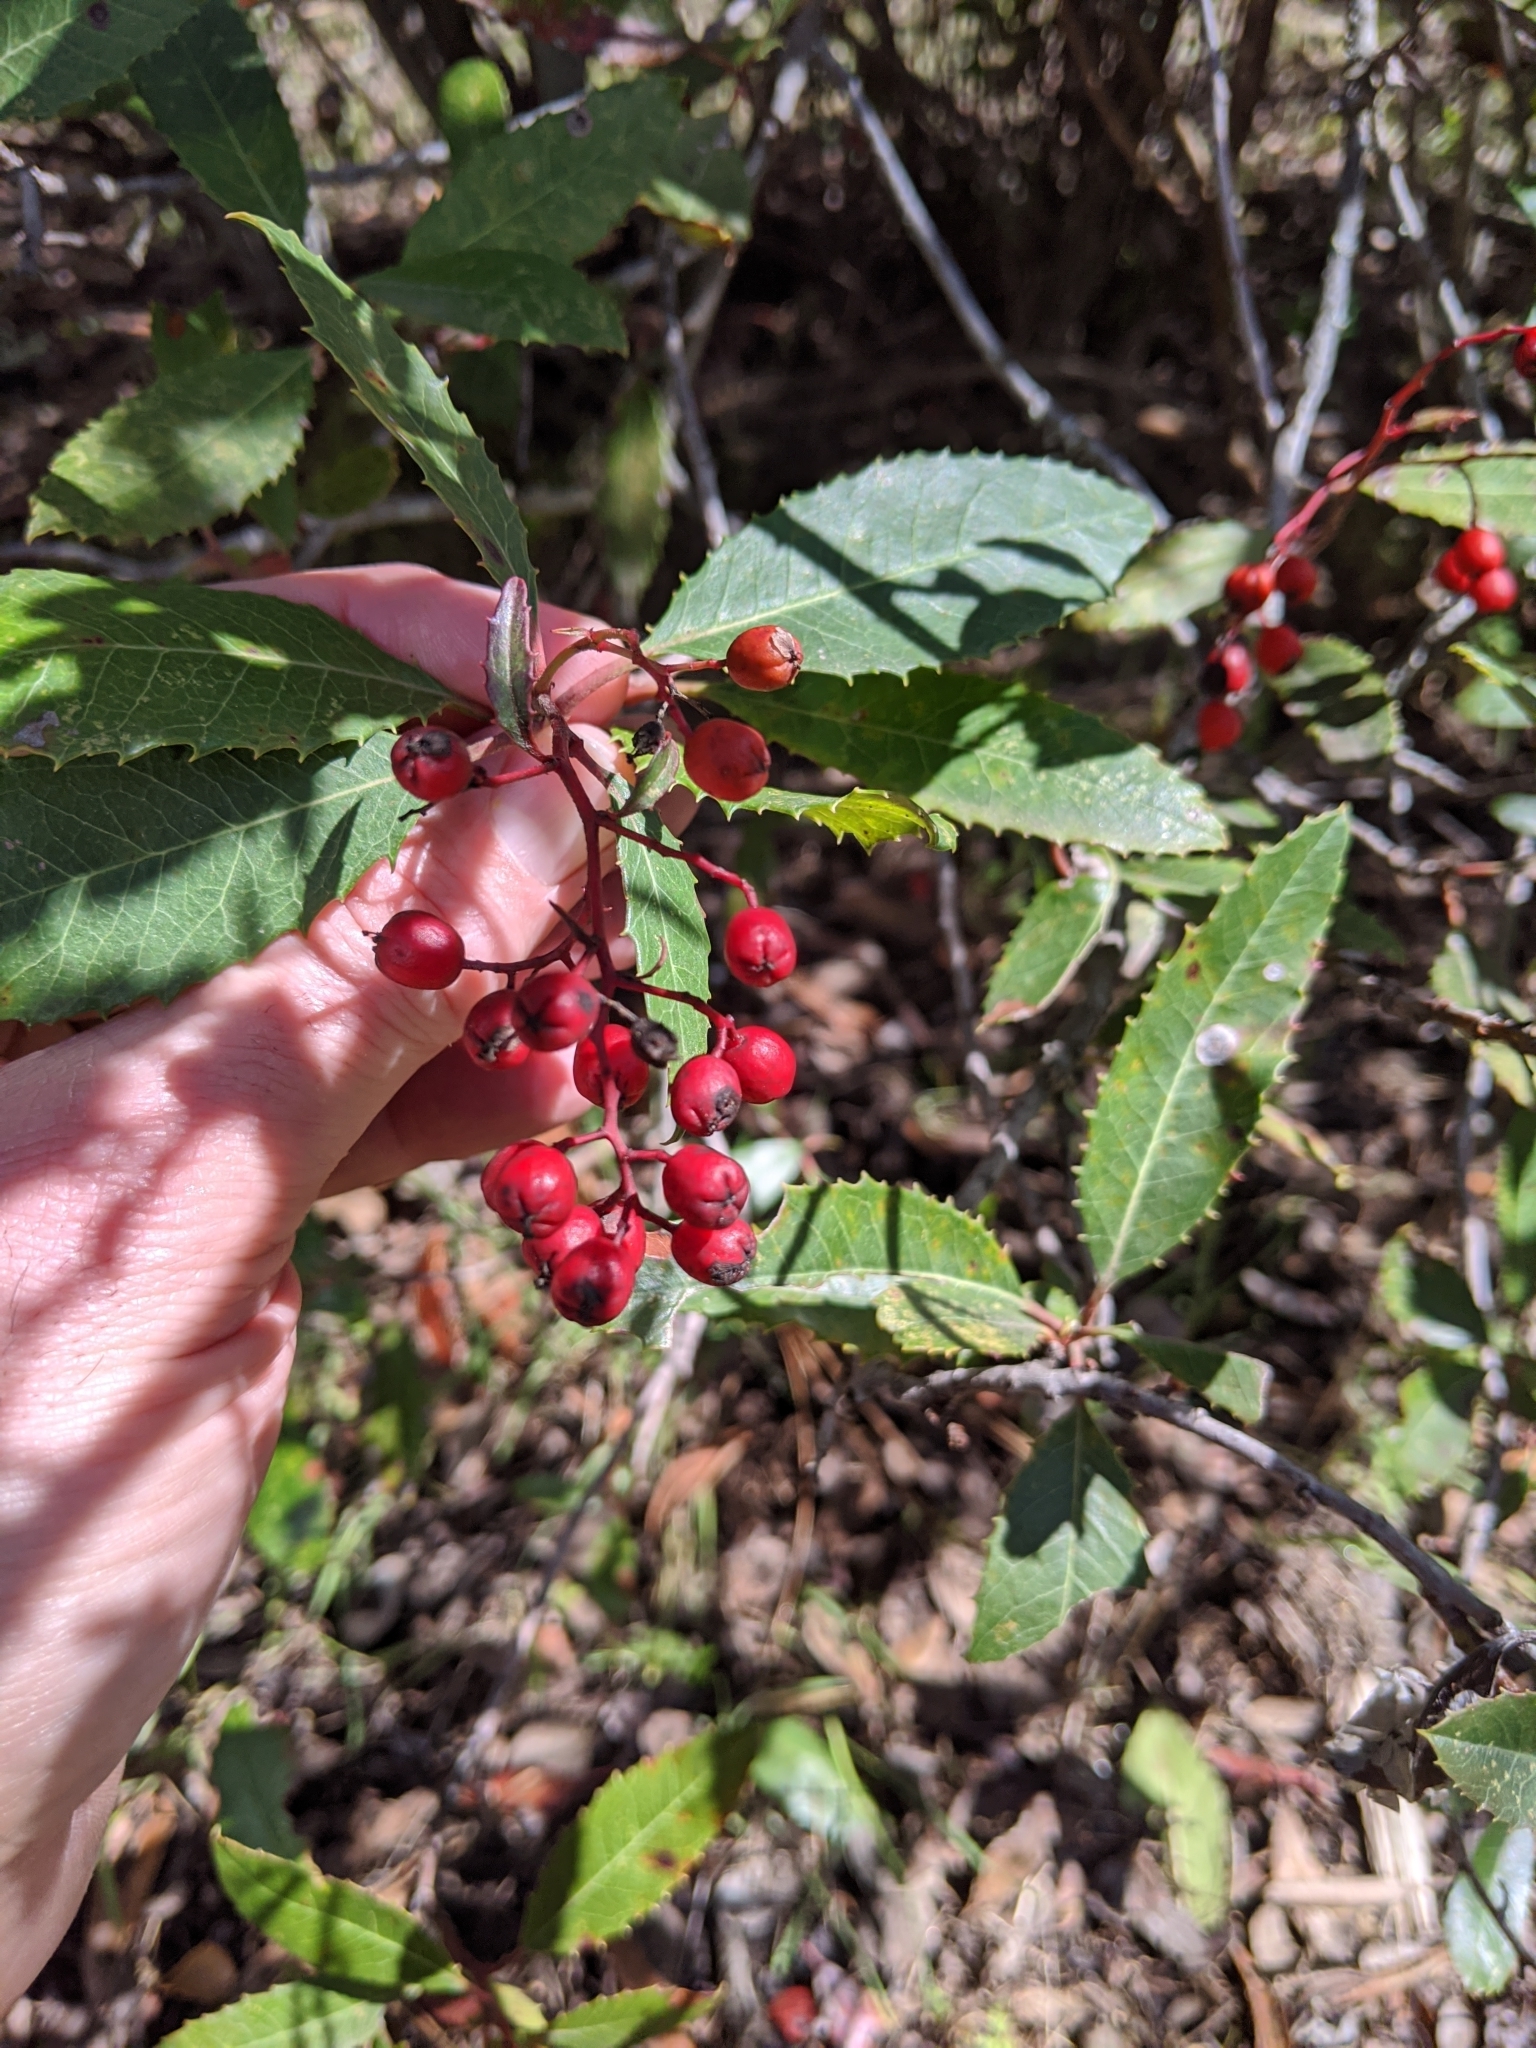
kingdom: Plantae
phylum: Tracheophyta
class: Magnoliopsida
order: Rosales
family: Rosaceae
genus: Heteromeles
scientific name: Heteromeles arbutifolia
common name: California-holly
